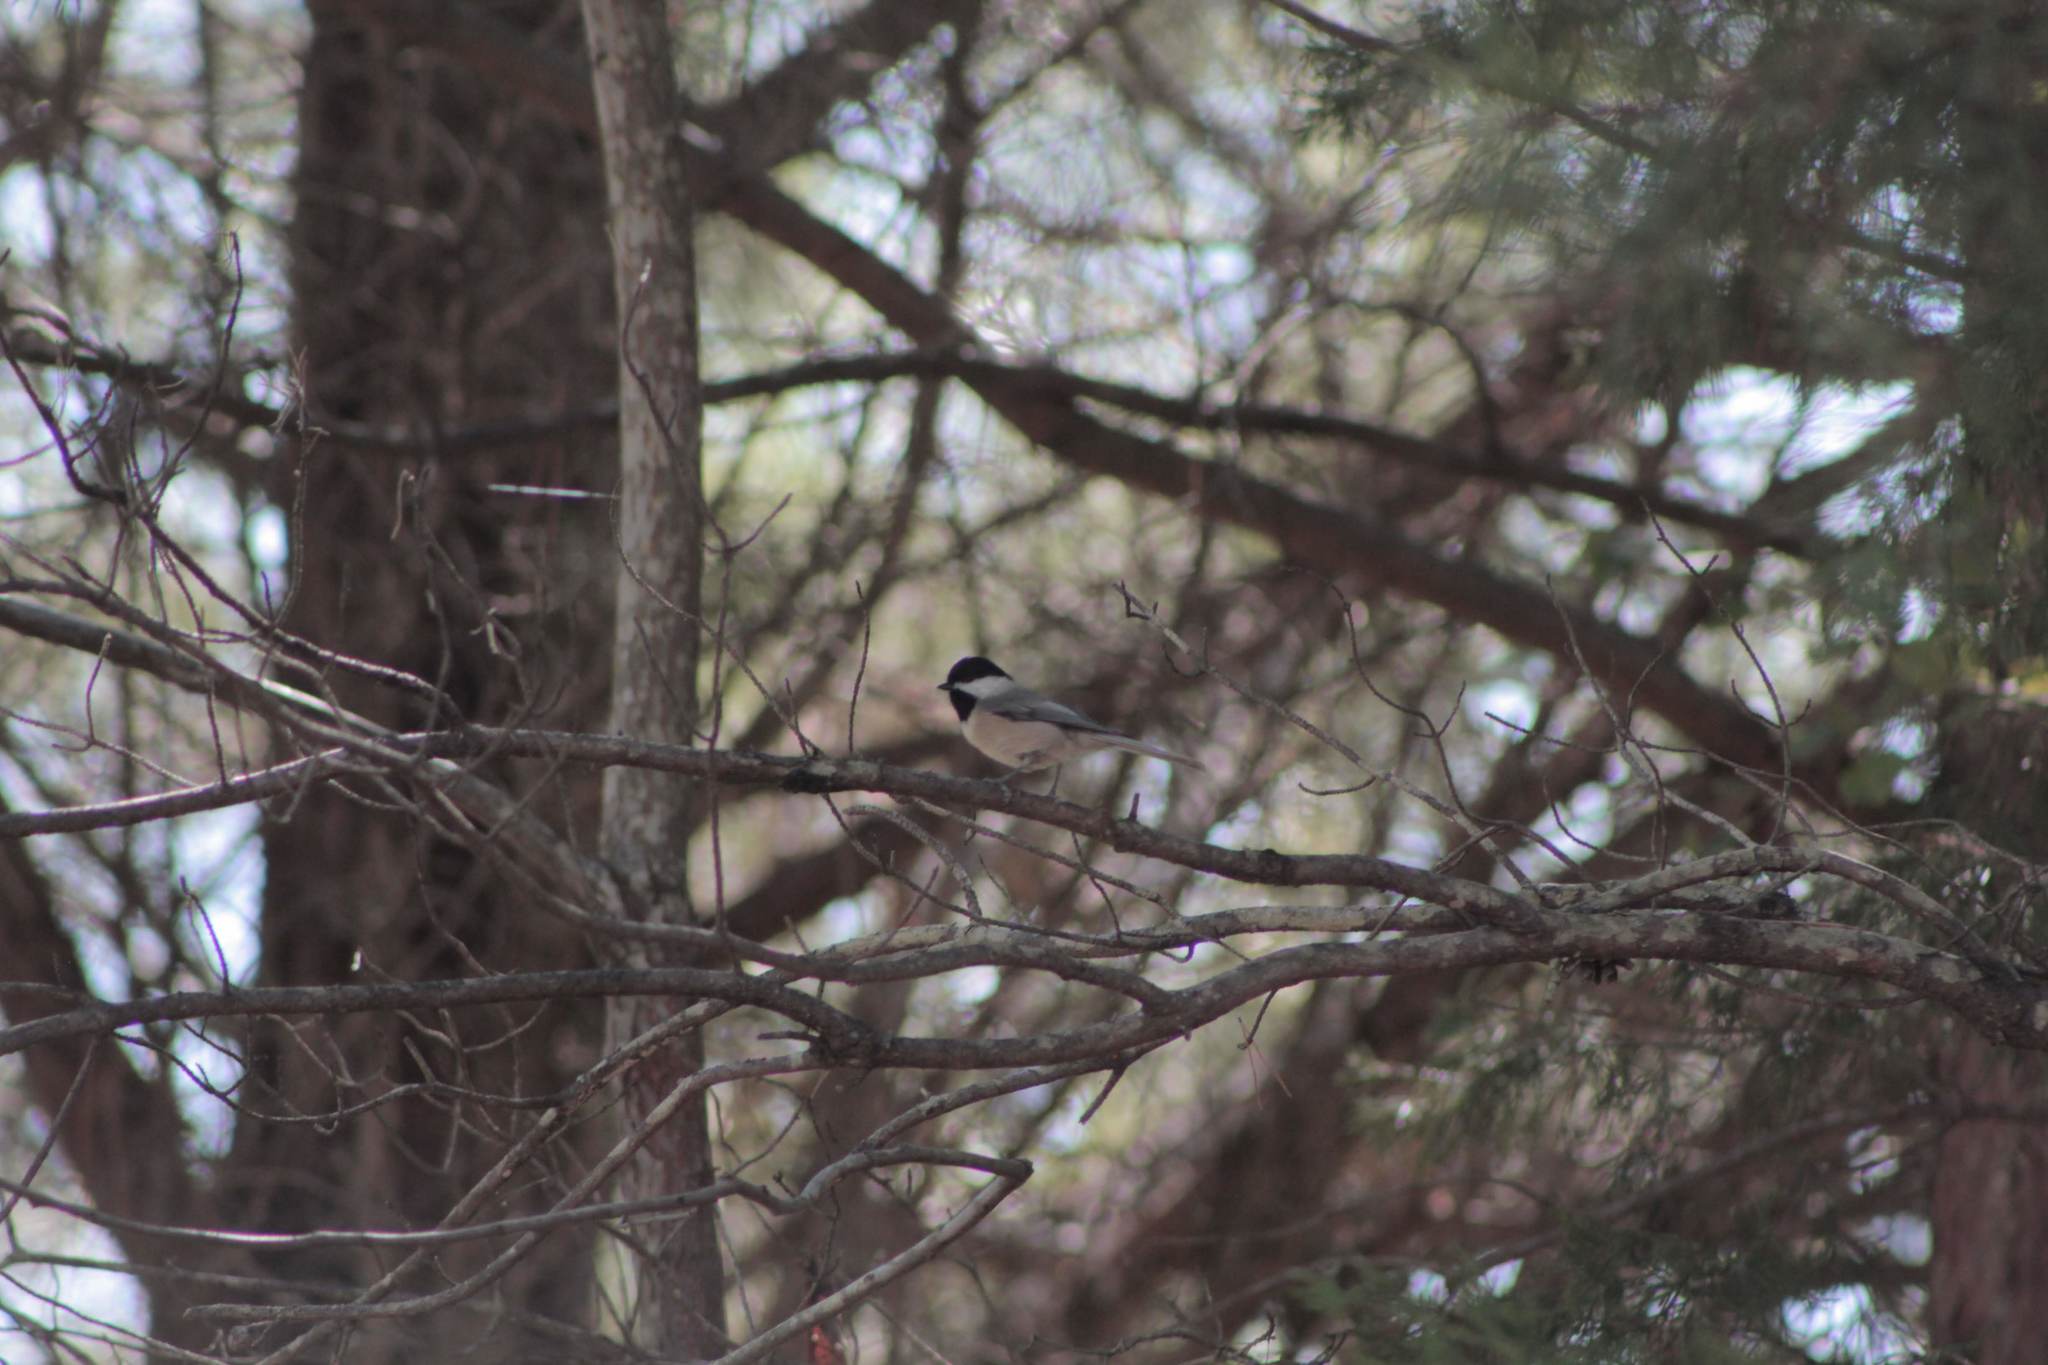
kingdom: Animalia
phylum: Chordata
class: Aves
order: Passeriformes
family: Paridae
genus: Poecile
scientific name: Poecile carolinensis
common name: Carolina chickadee
